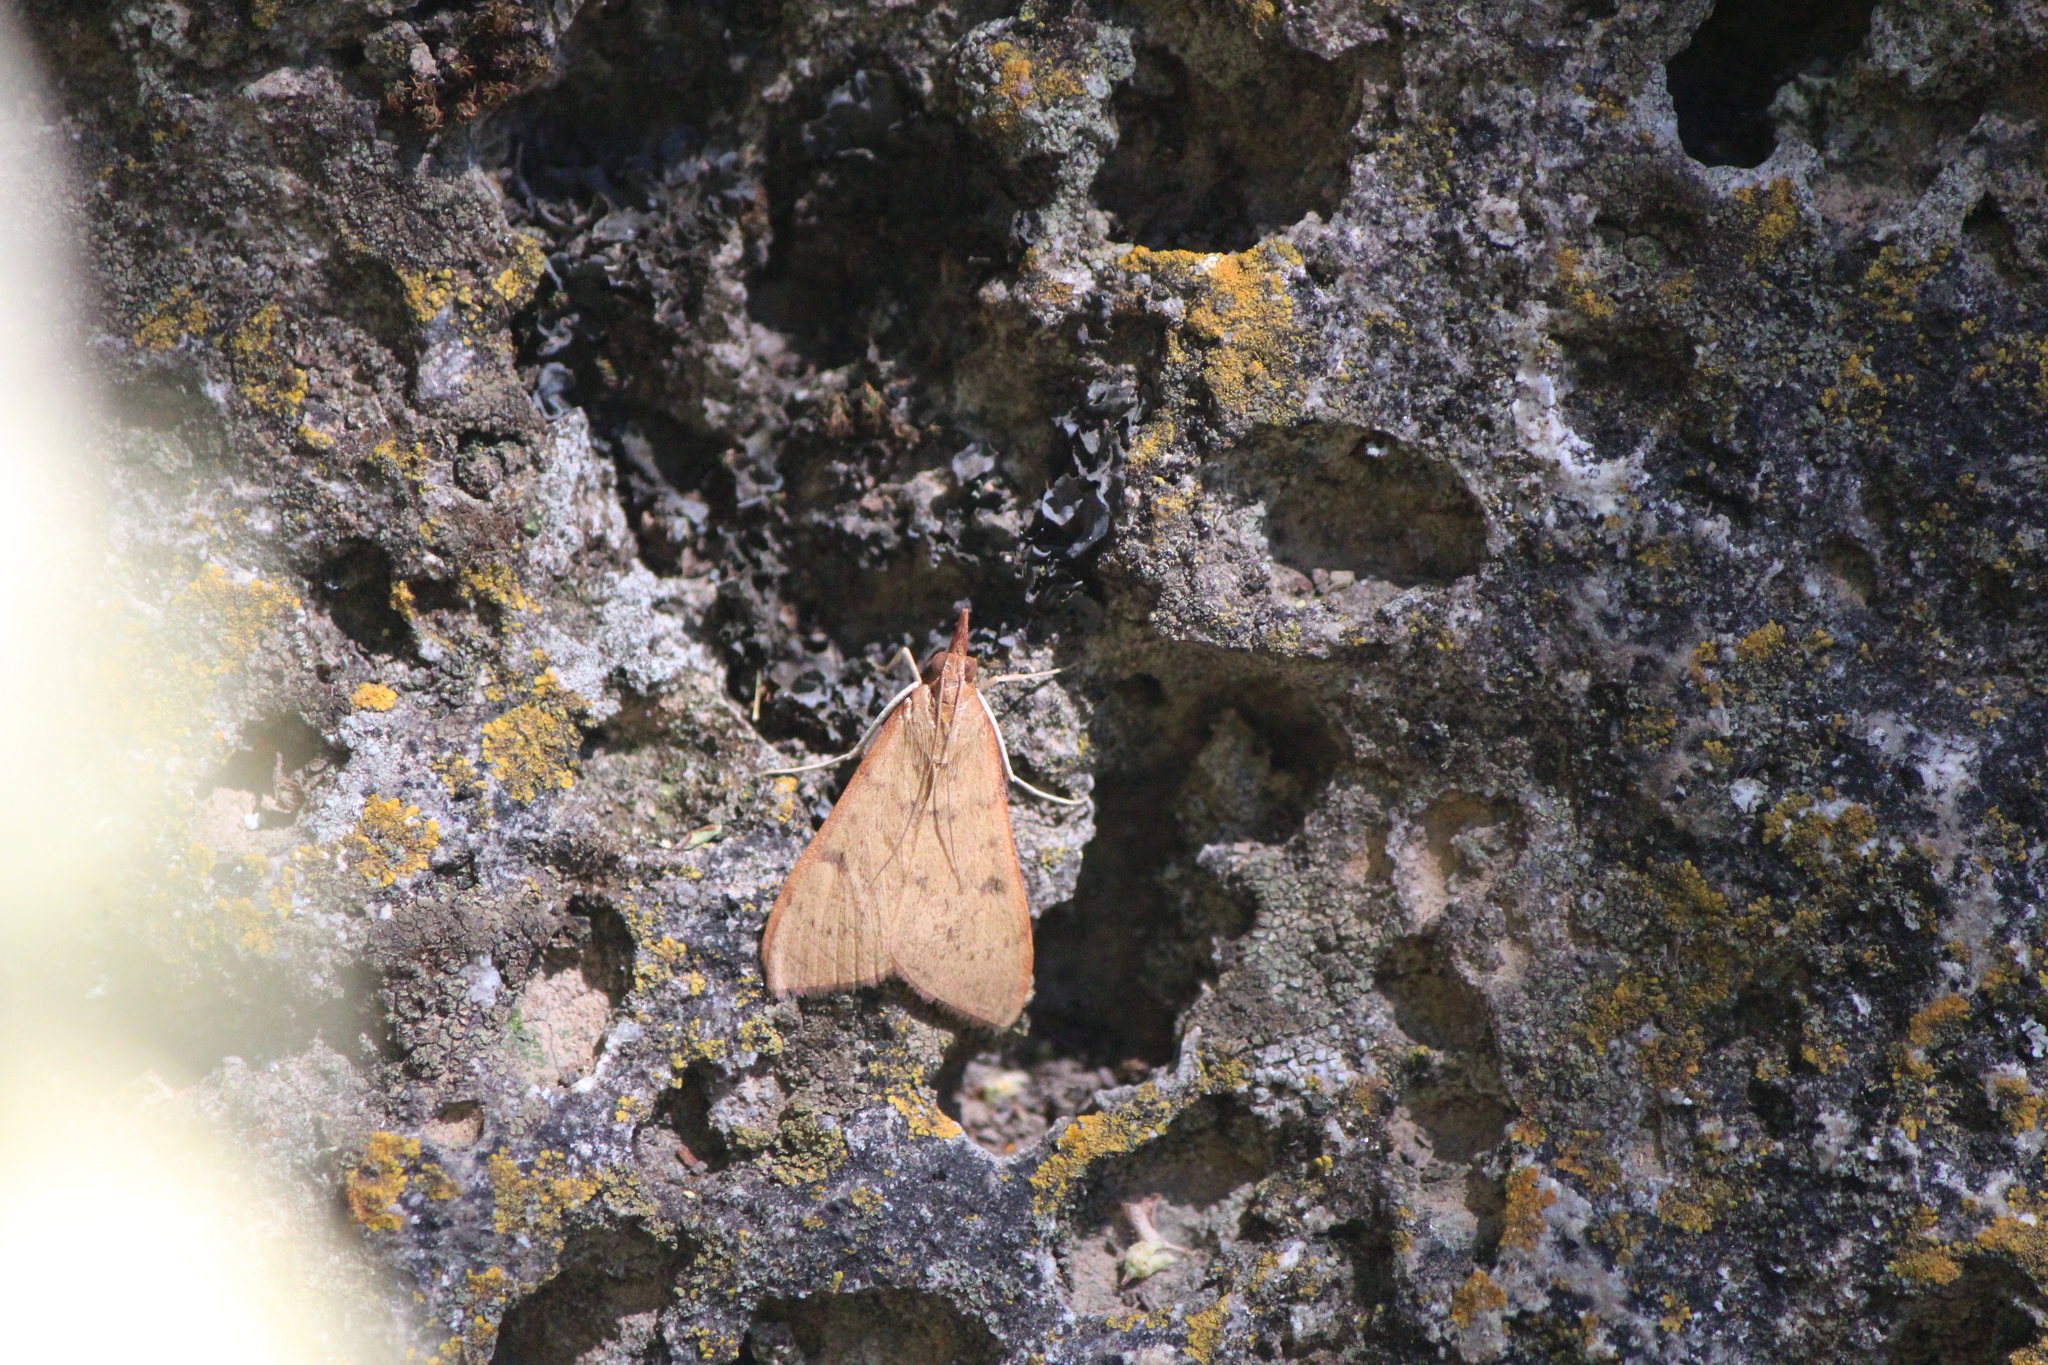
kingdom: Animalia
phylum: Arthropoda
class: Insecta
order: Lepidoptera
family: Crambidae
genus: Uresiphita
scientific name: Uresiphita reversalis
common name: Genista broom moth
